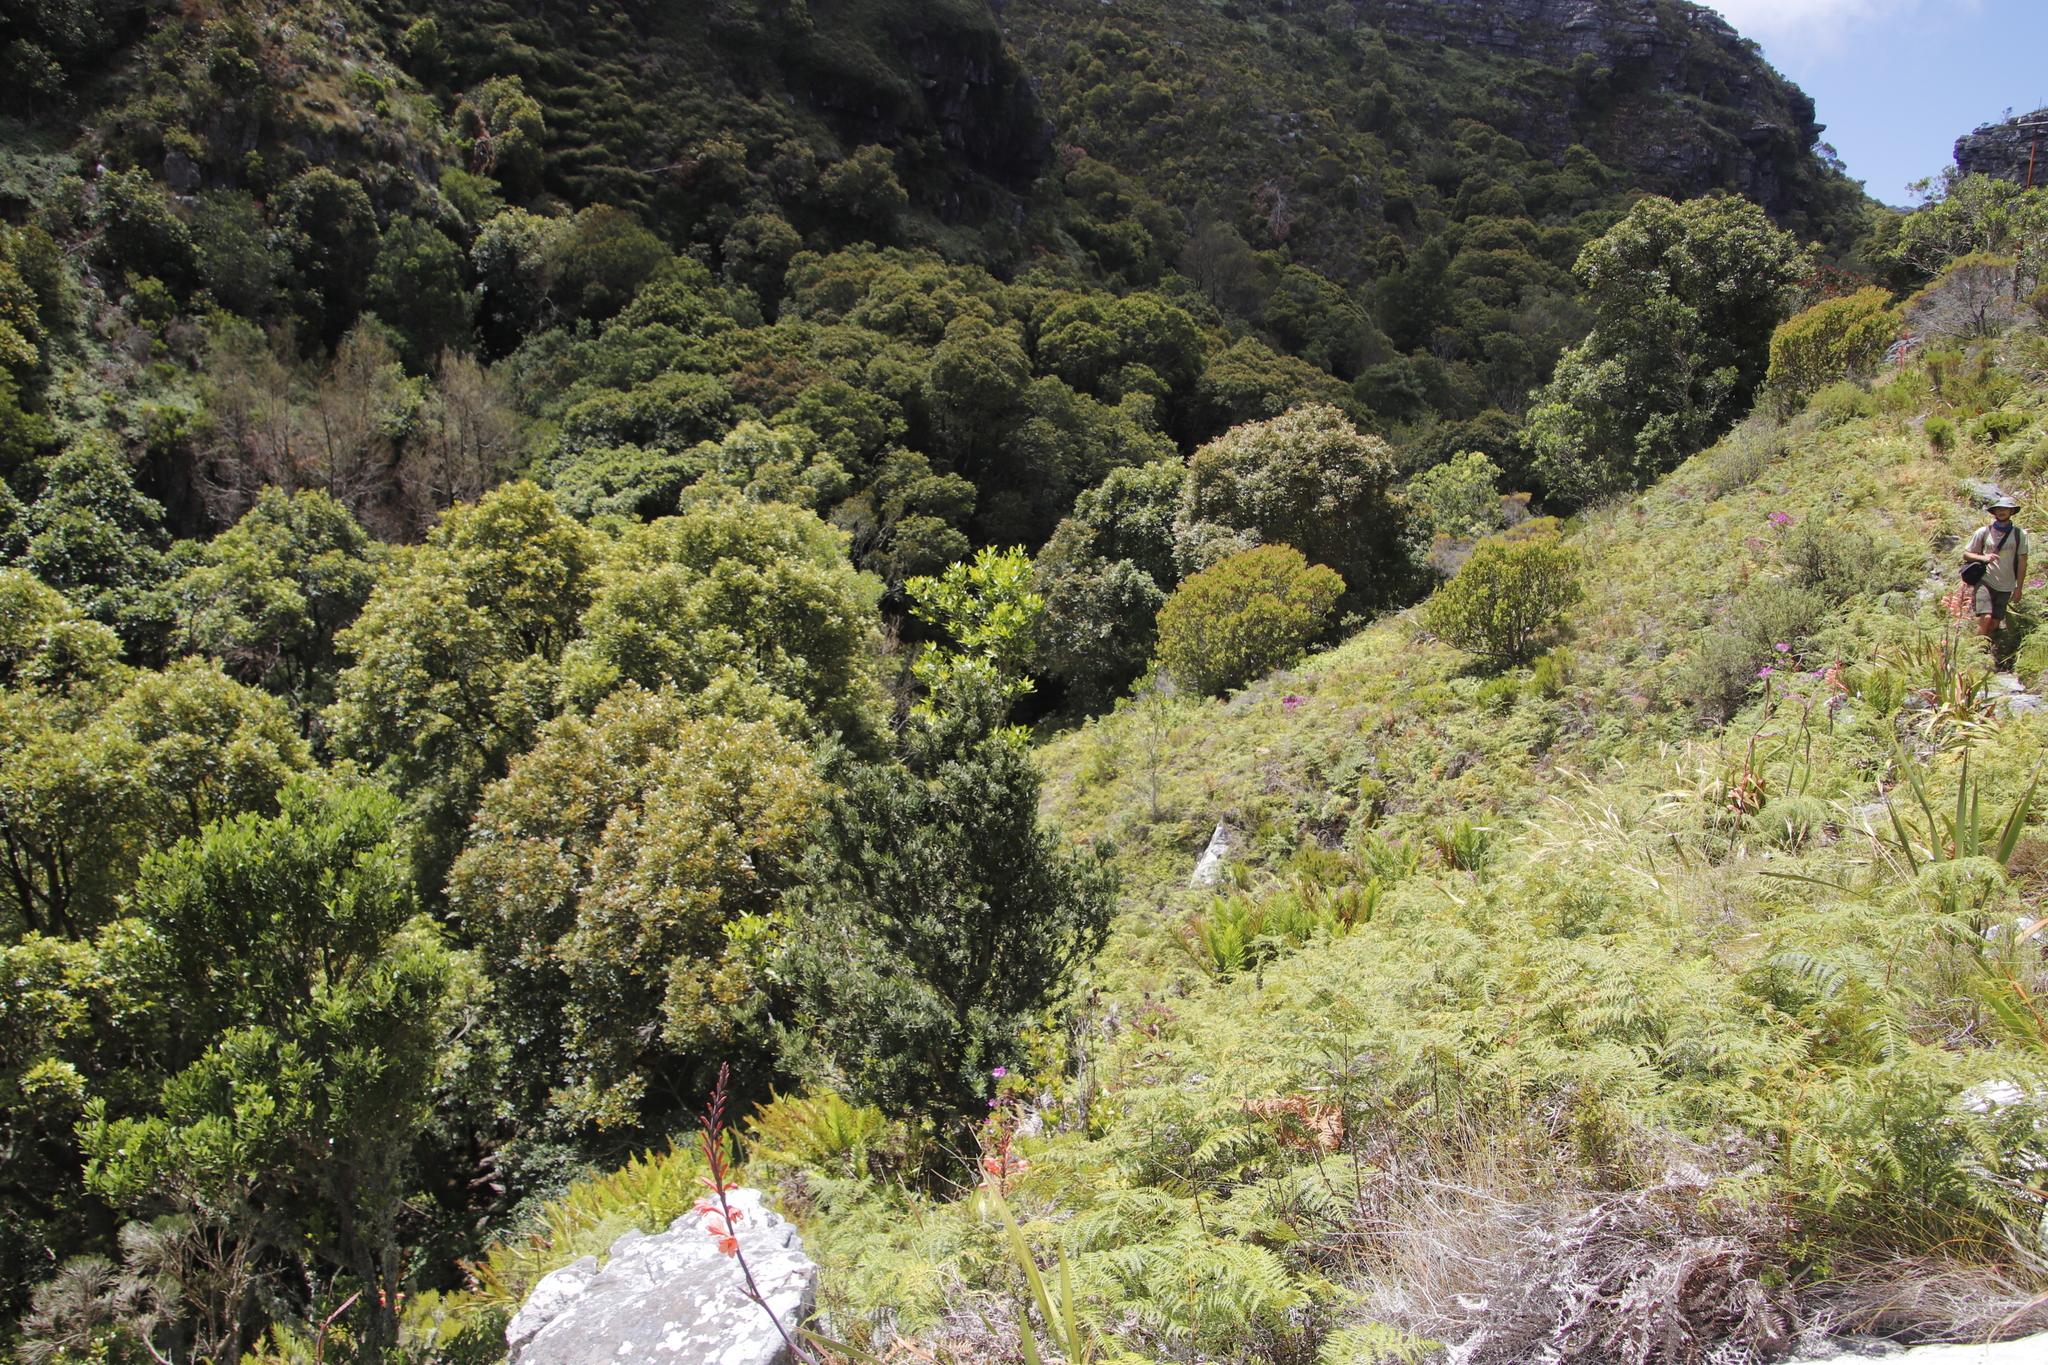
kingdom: Plantae
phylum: Tracheophyta
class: Pinopsida
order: Pinales
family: Podocarpaceae
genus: Podocarpus
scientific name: Podocarpus latifolius
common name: True yellowwood
